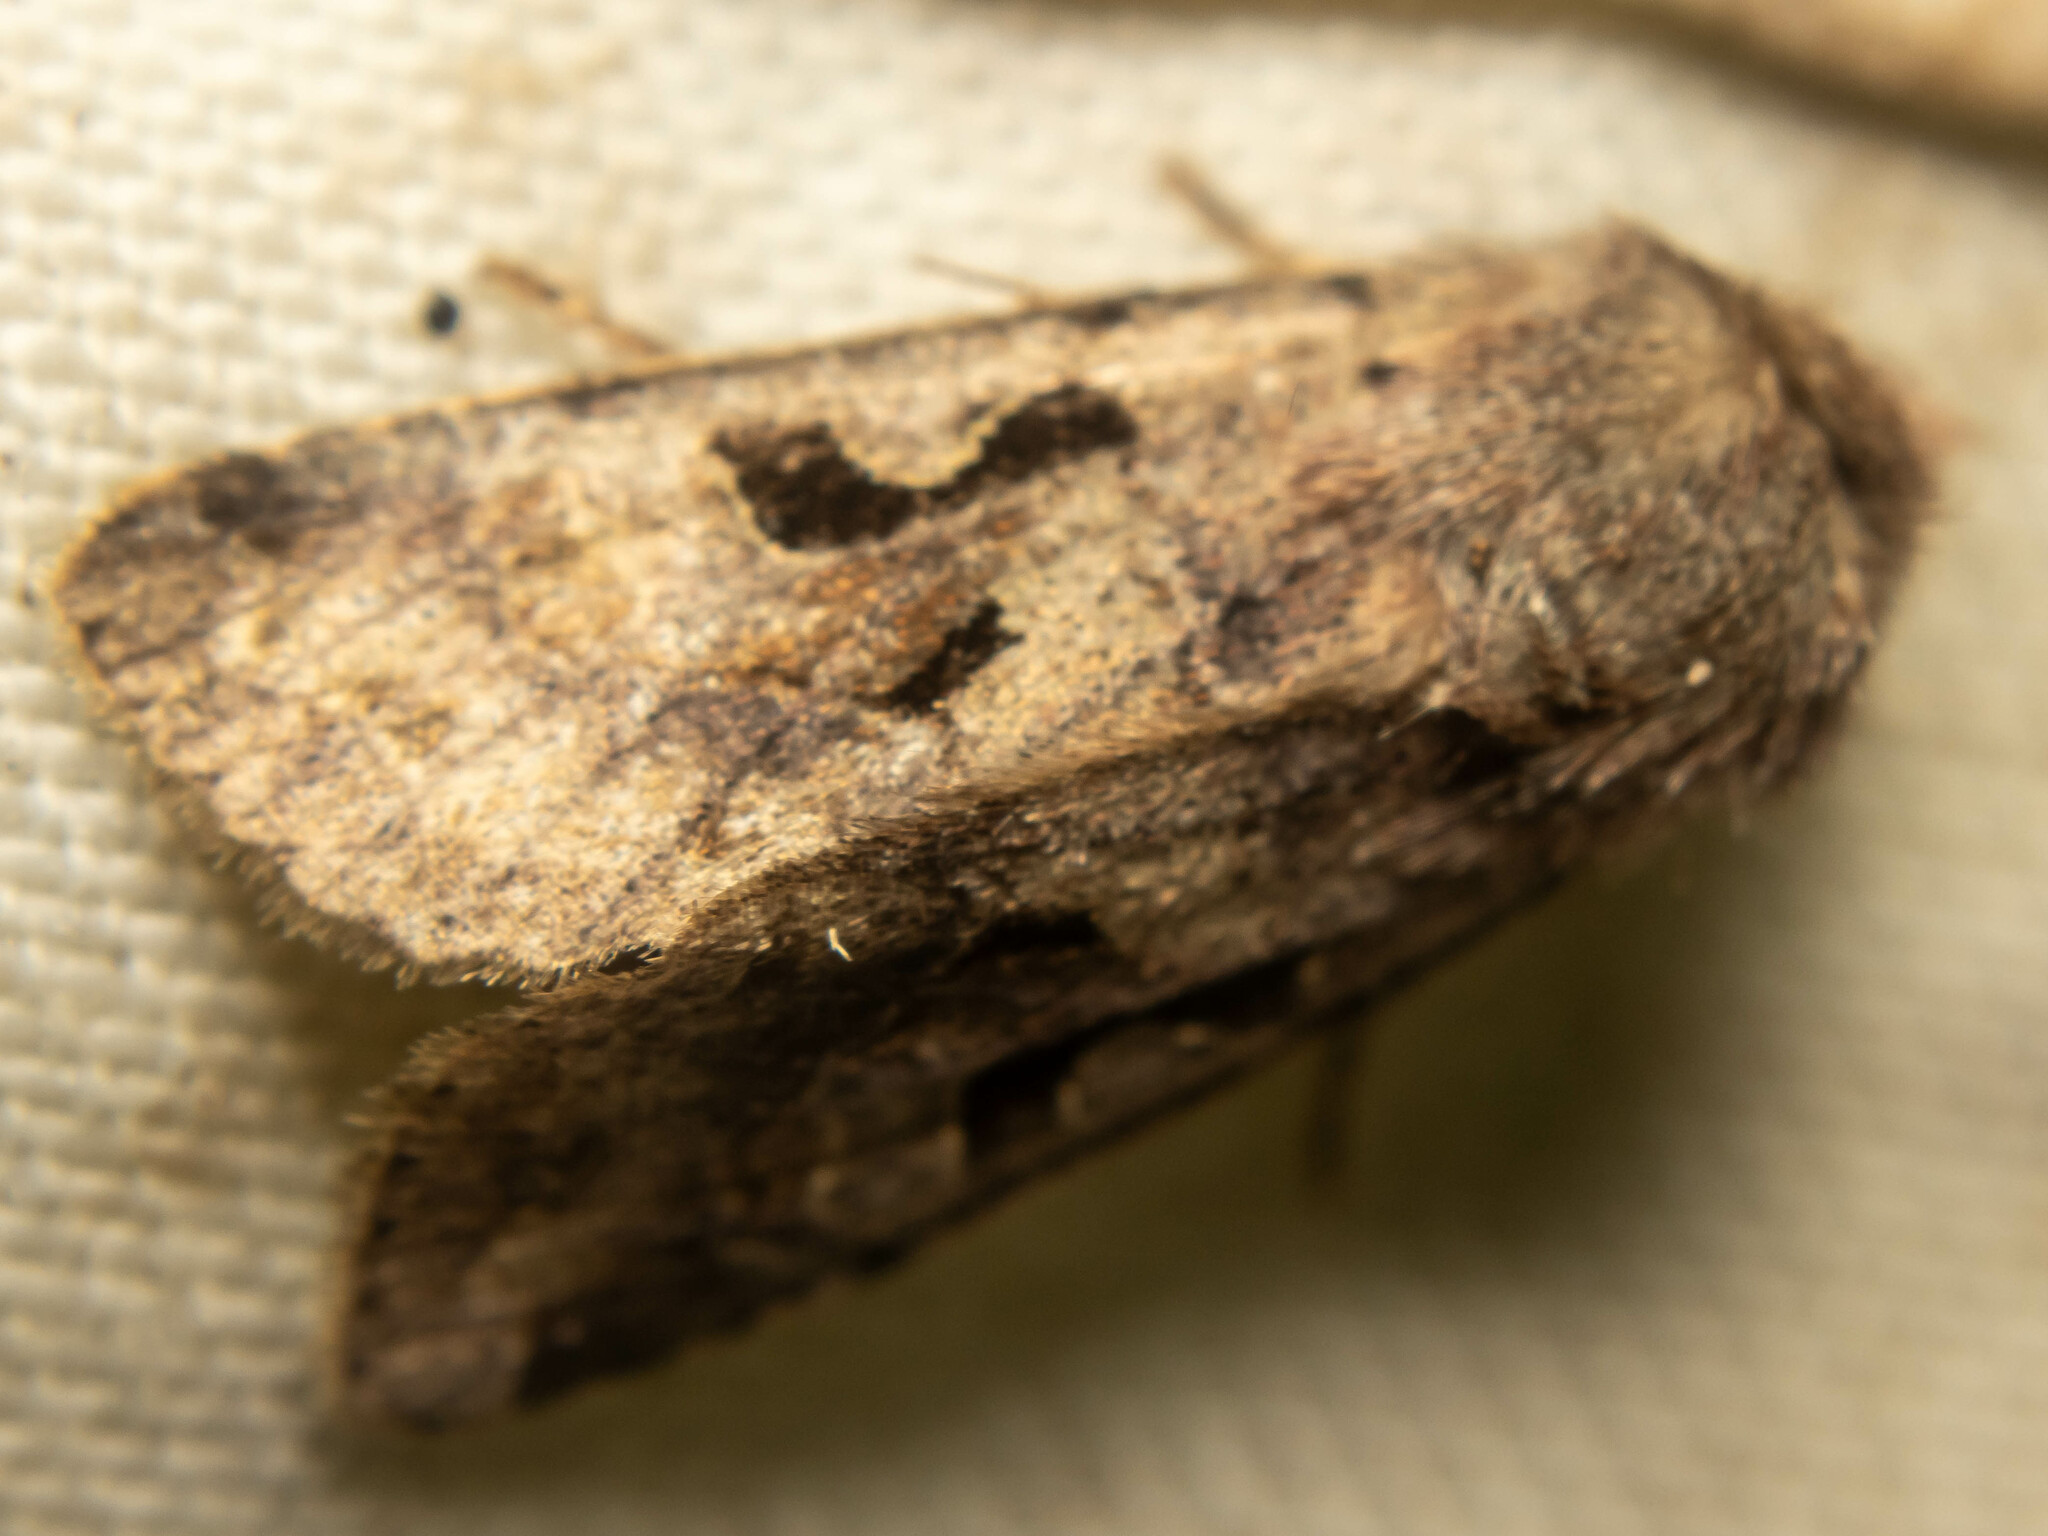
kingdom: Animalia
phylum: Arthropoda
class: Insecta
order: Lepidoptera
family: Noctuidae
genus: Orthosia
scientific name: Orthosia gothica
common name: Hebrew character
